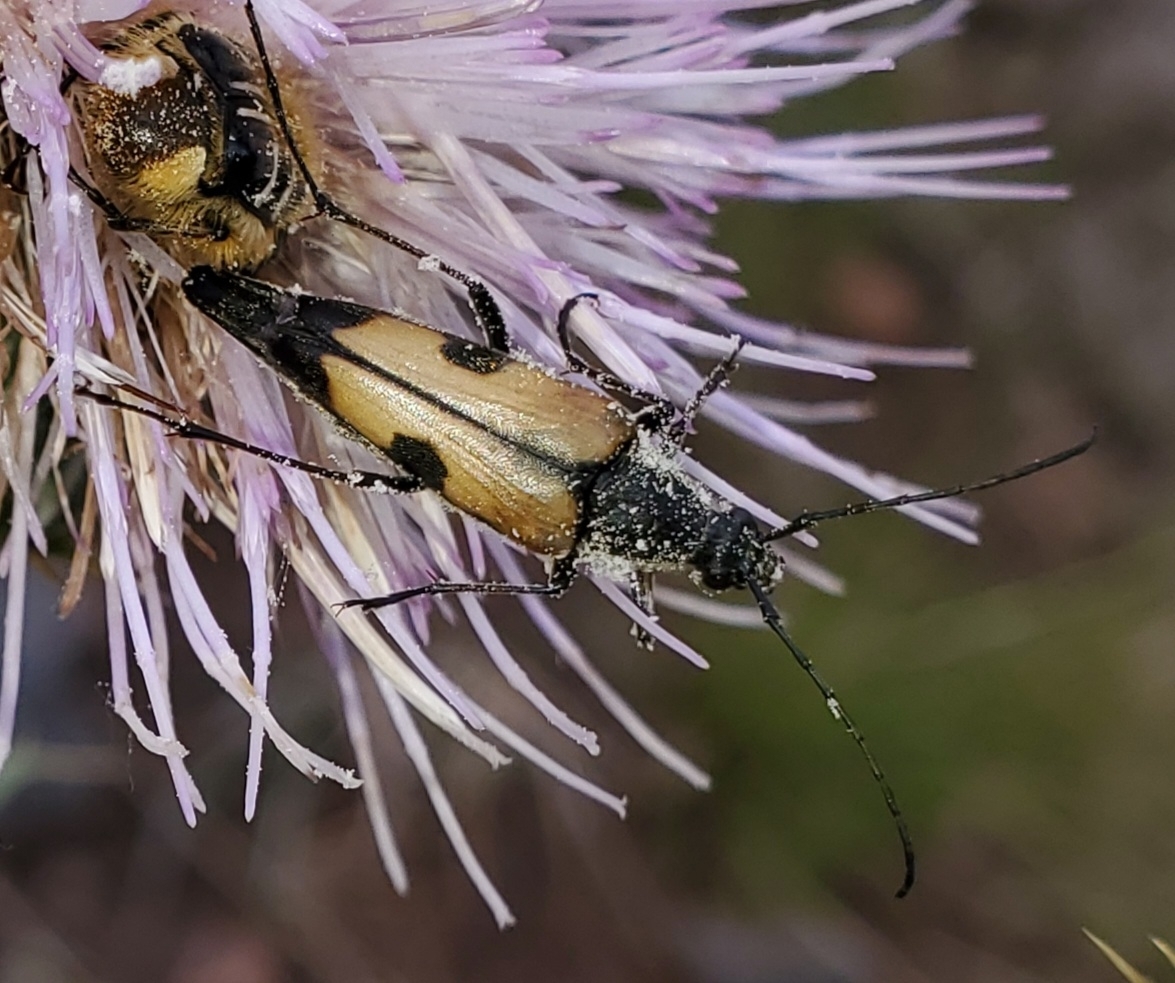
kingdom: Animalia
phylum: Arthropoda
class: Insecta
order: Coleoptera
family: Cerambycidae
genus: Etorofus
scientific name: Etorofus
